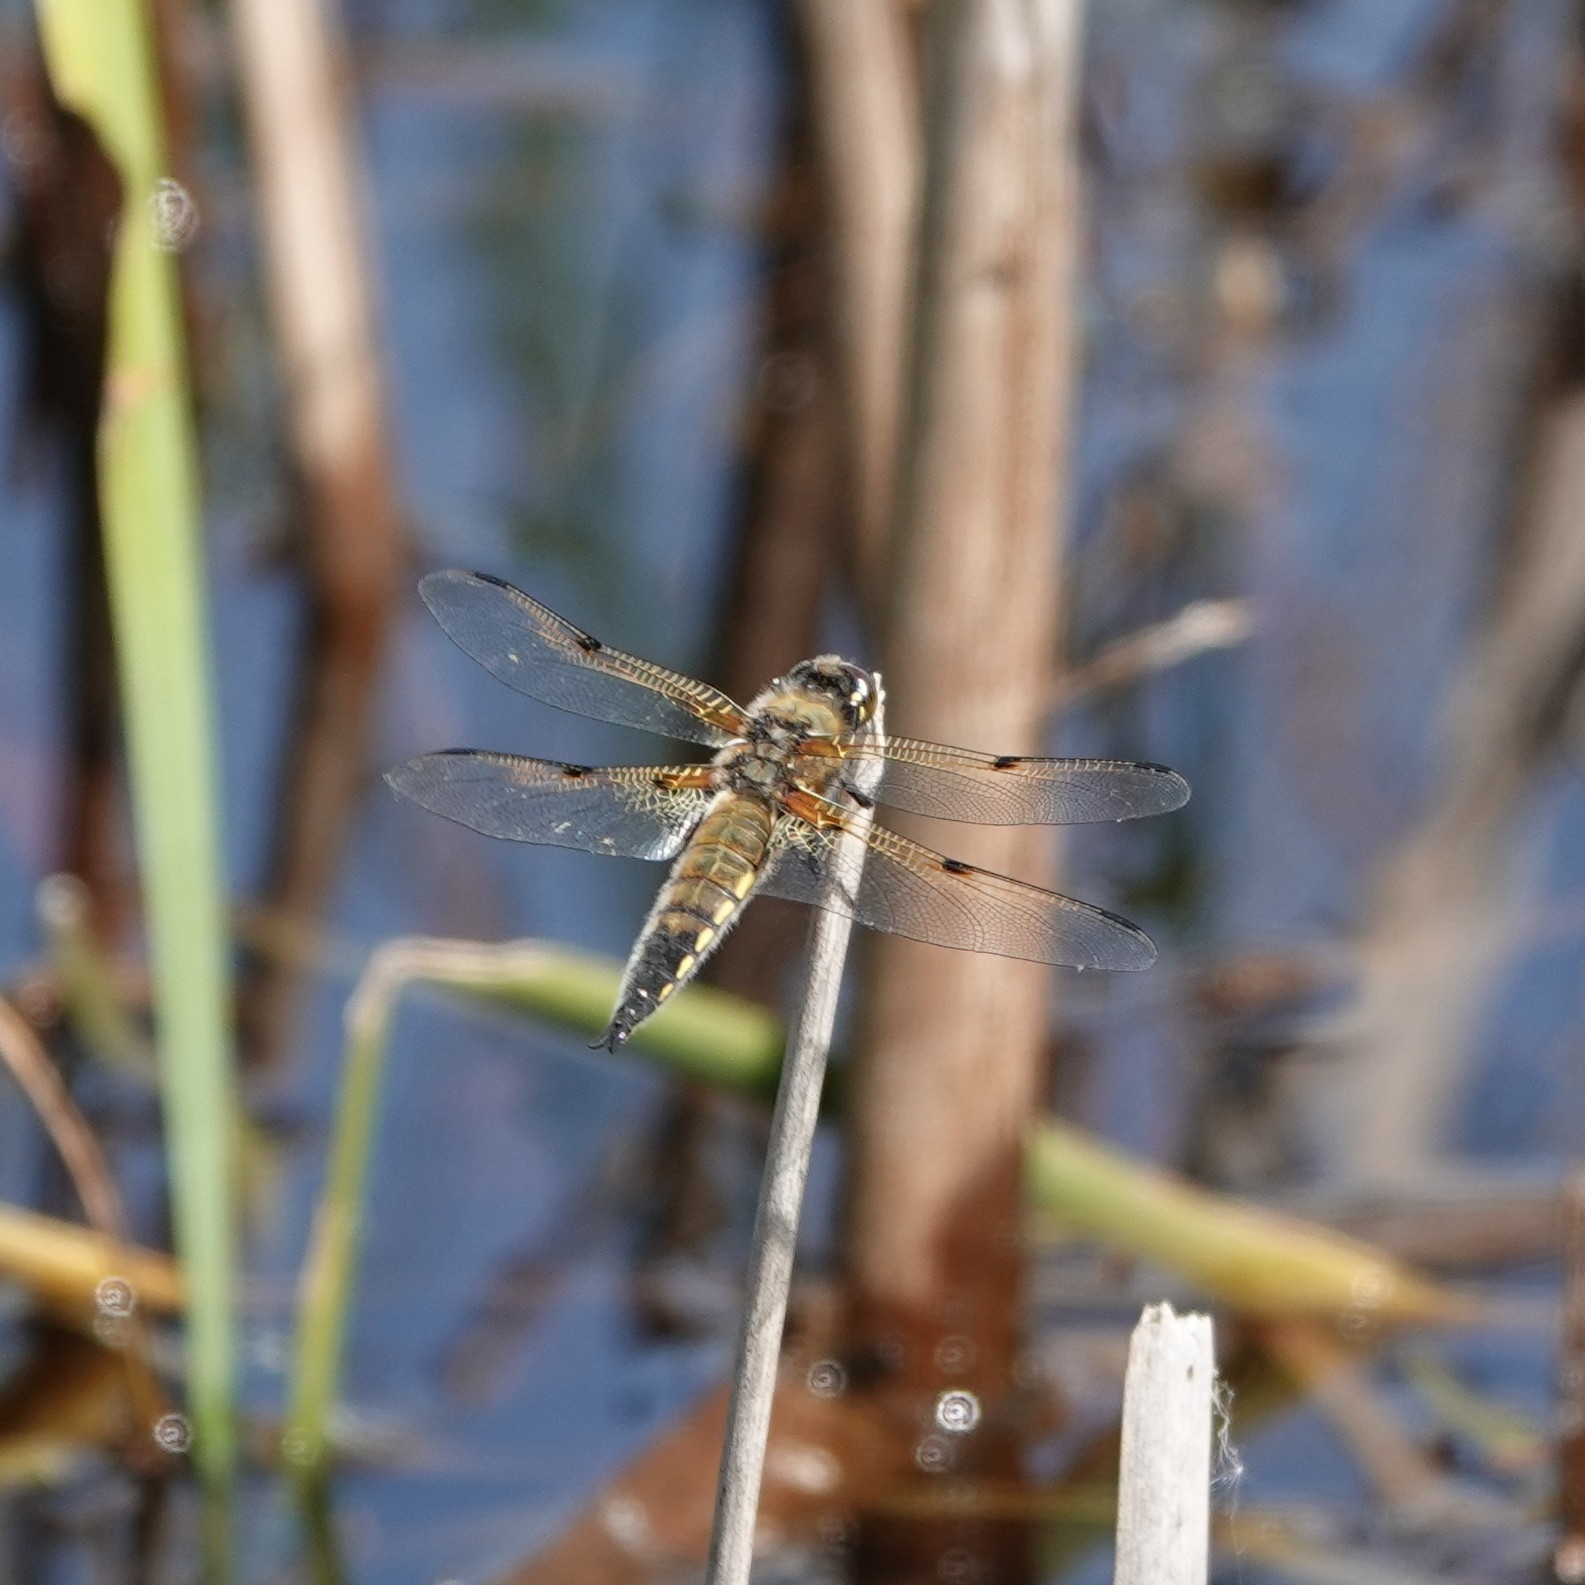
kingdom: Animalia
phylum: Arthropoda
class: Insecta
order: Odonata
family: Libellulidae
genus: Libellula
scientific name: Libellula quadrimaculata
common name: Four-spotted chaser
